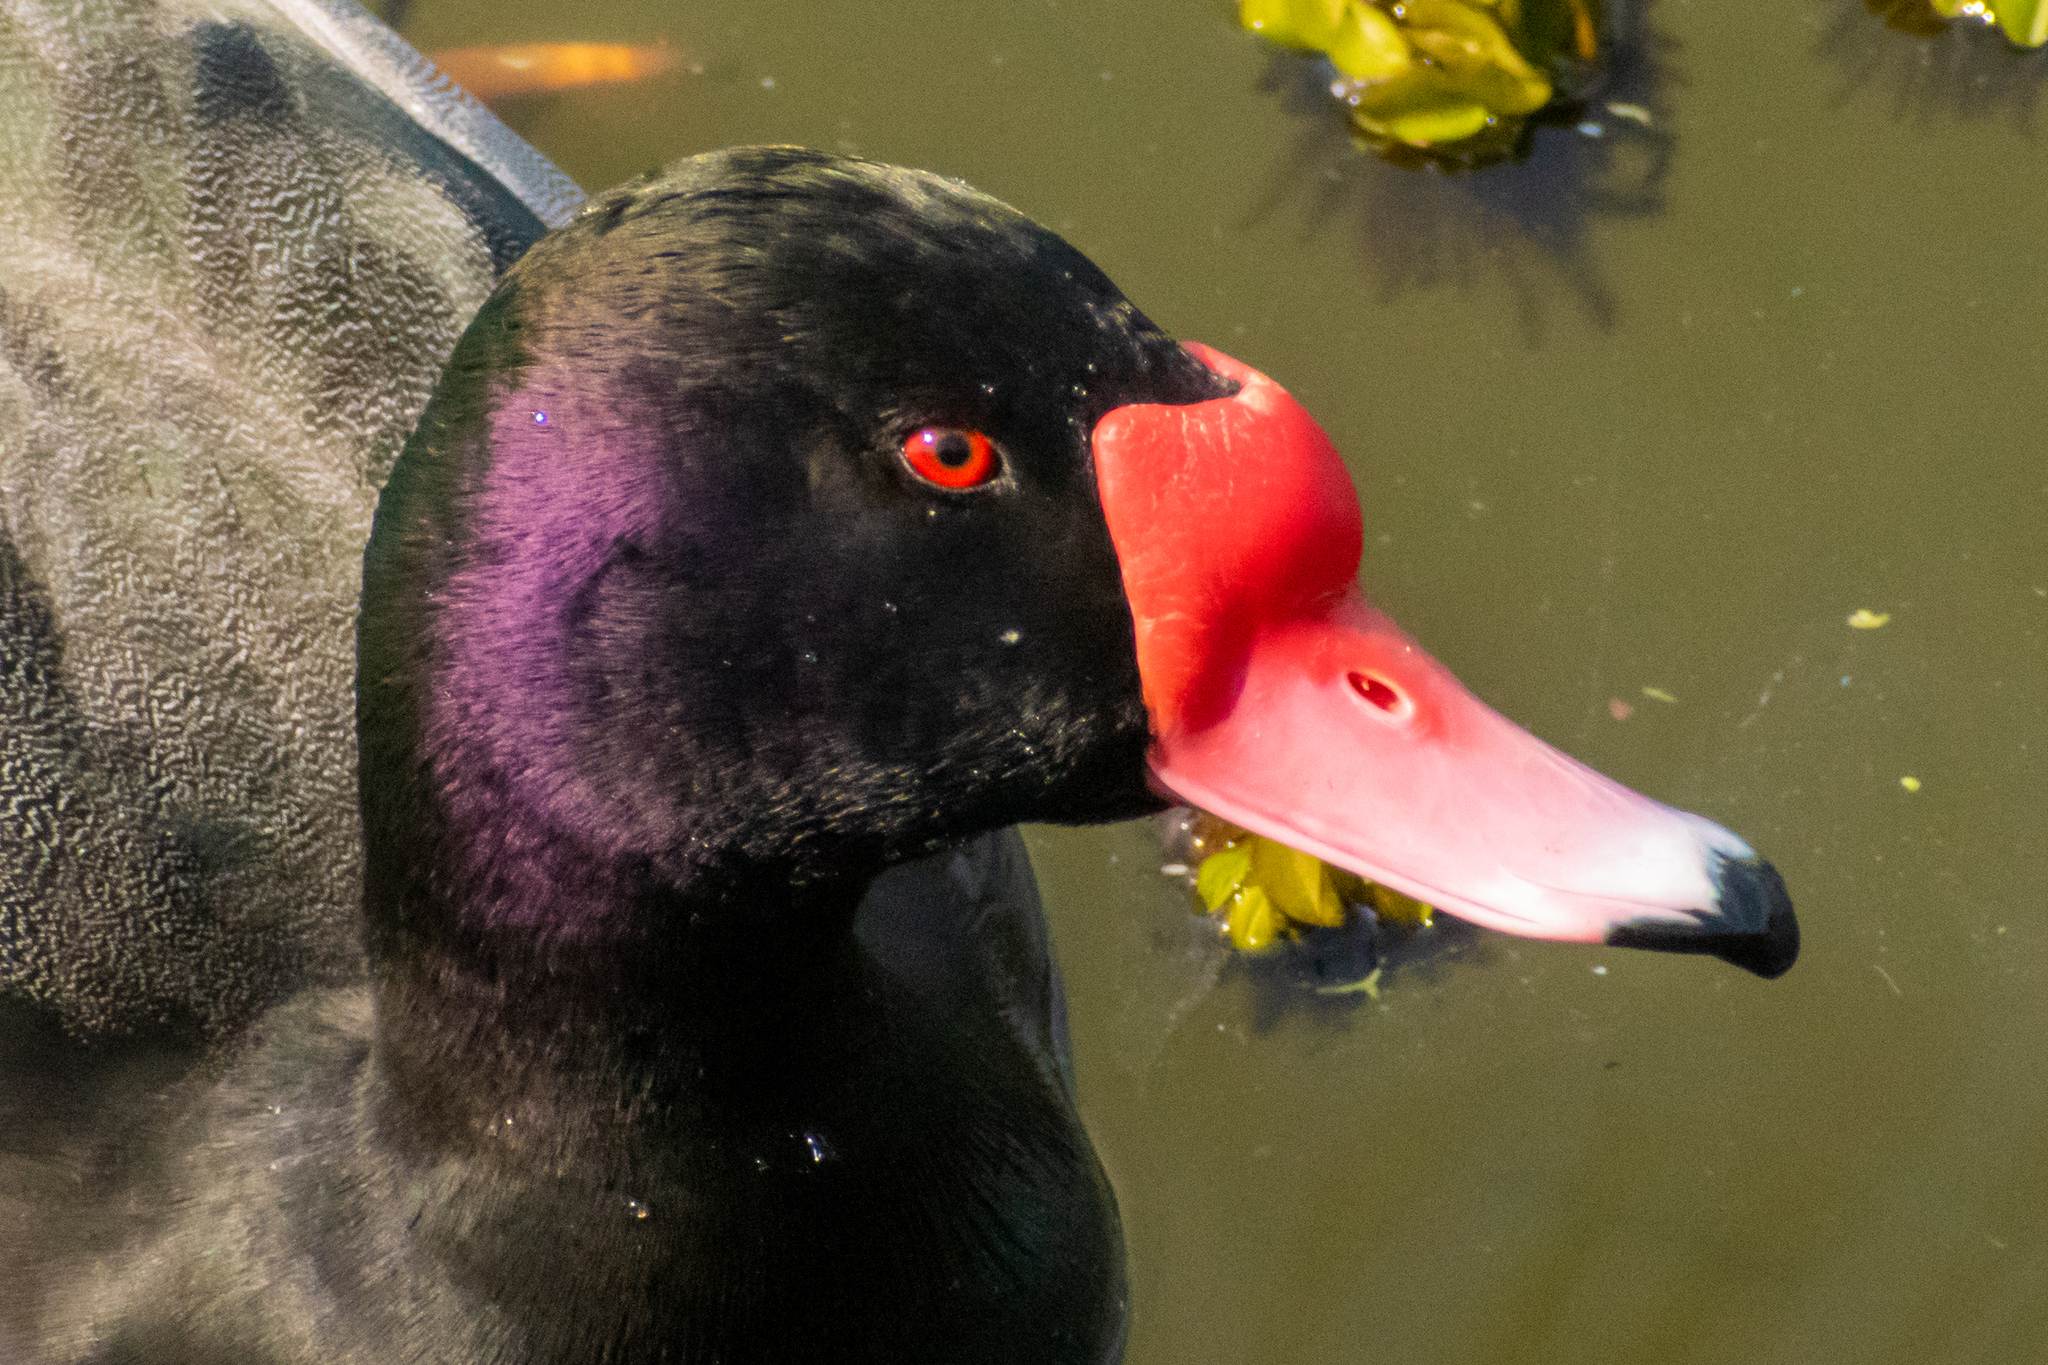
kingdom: Animalia
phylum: Chordata
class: Aves
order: Anseriformes
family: Anatidae
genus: Netta
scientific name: Netta peposaca
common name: Rosy-billed pochard
